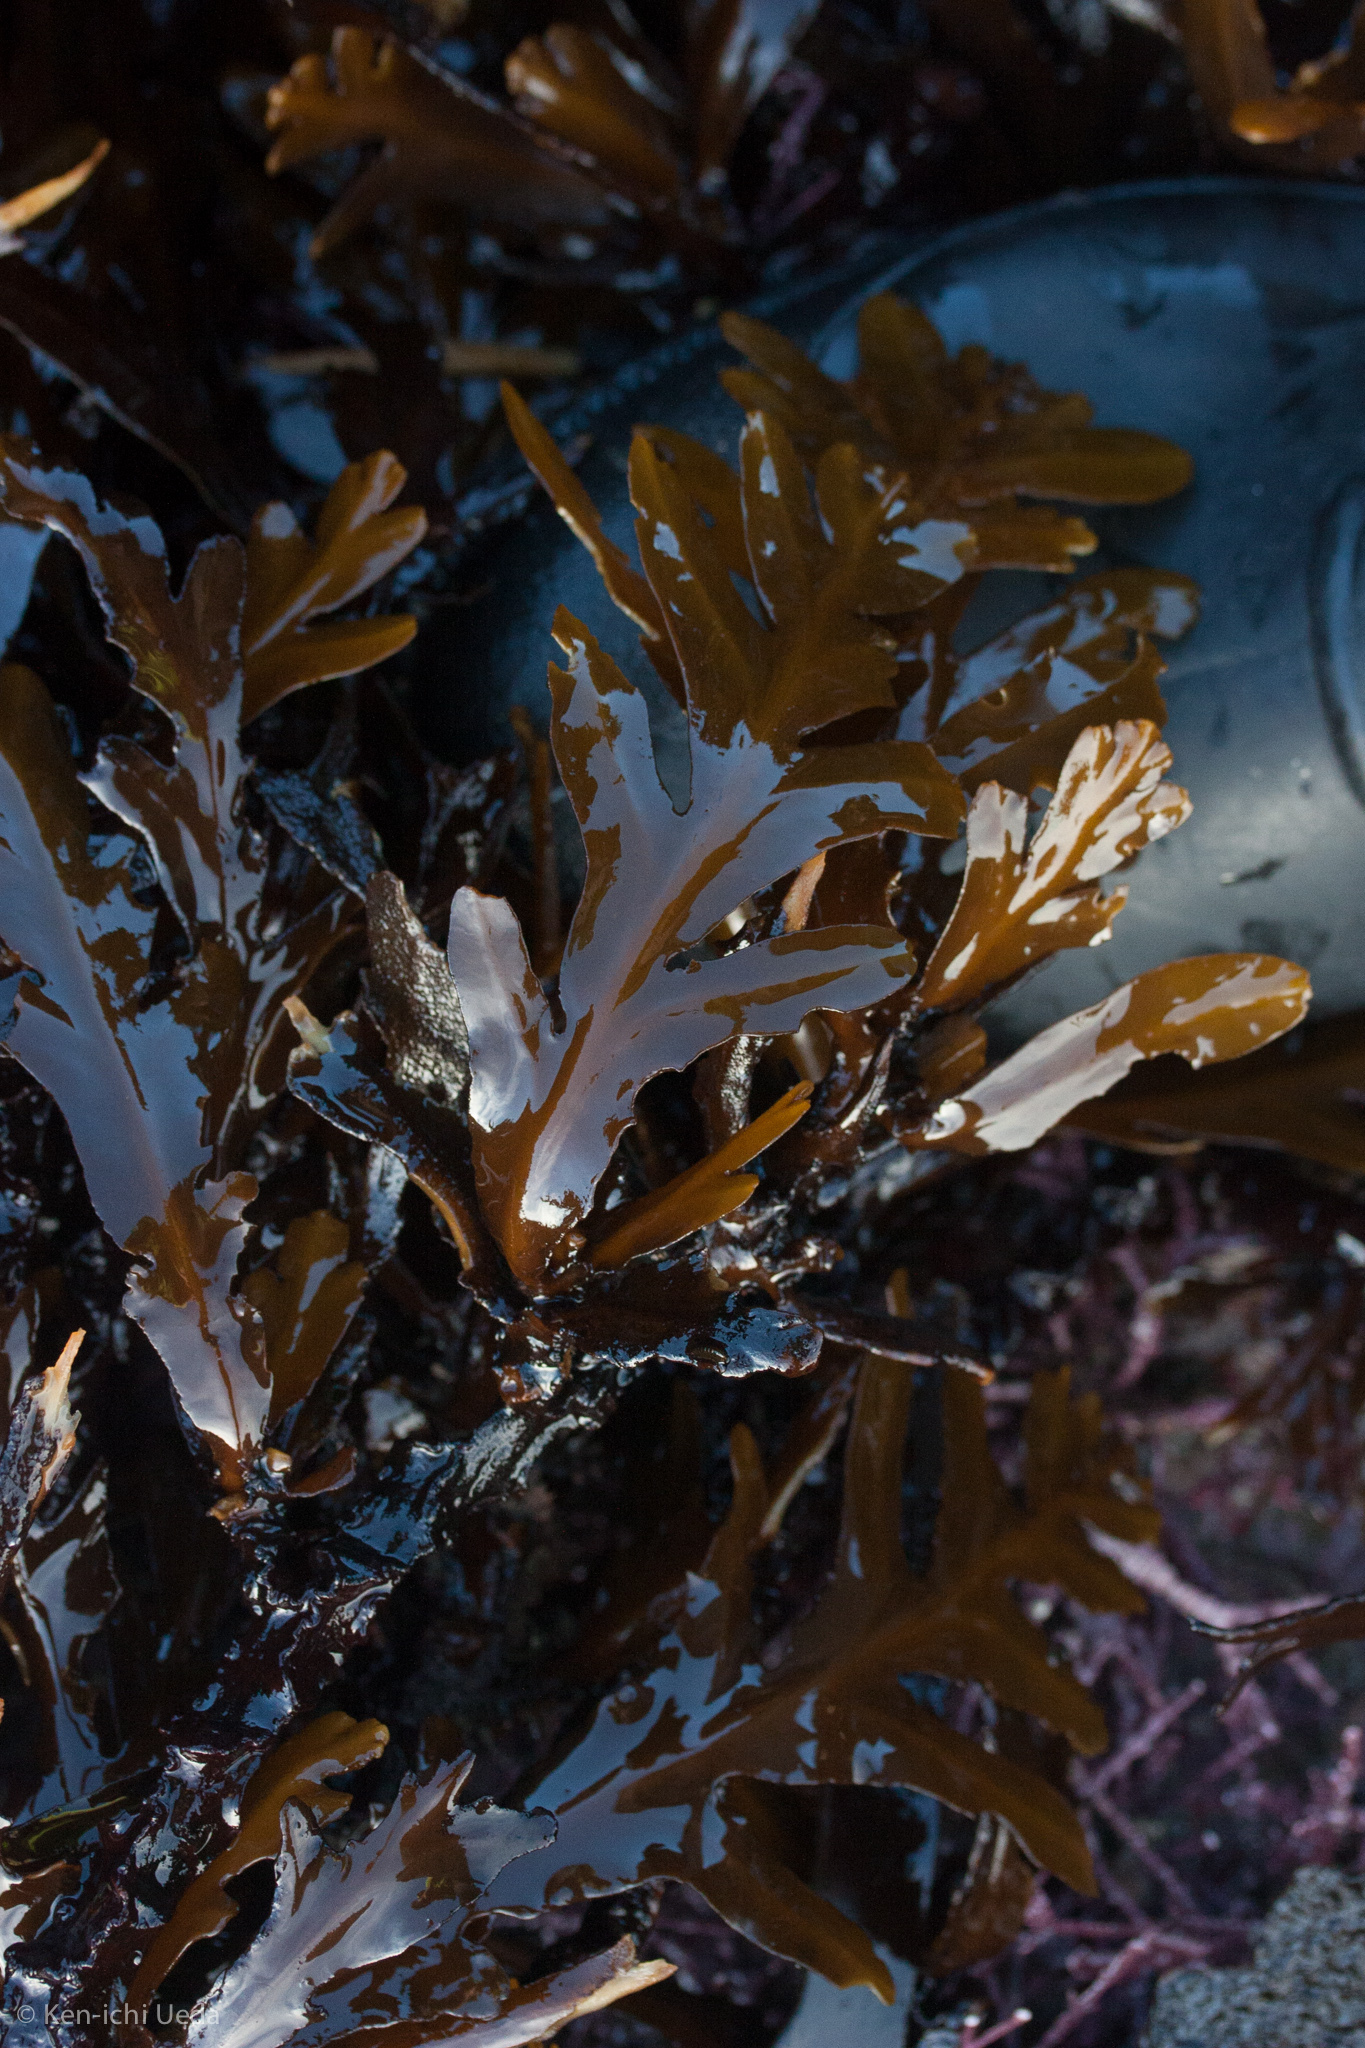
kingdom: Chromista
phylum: Ochrophyta
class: Phaeophyceae
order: Fucales
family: Sargassaceae
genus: Stephanocystis
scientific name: Stephanocystis
